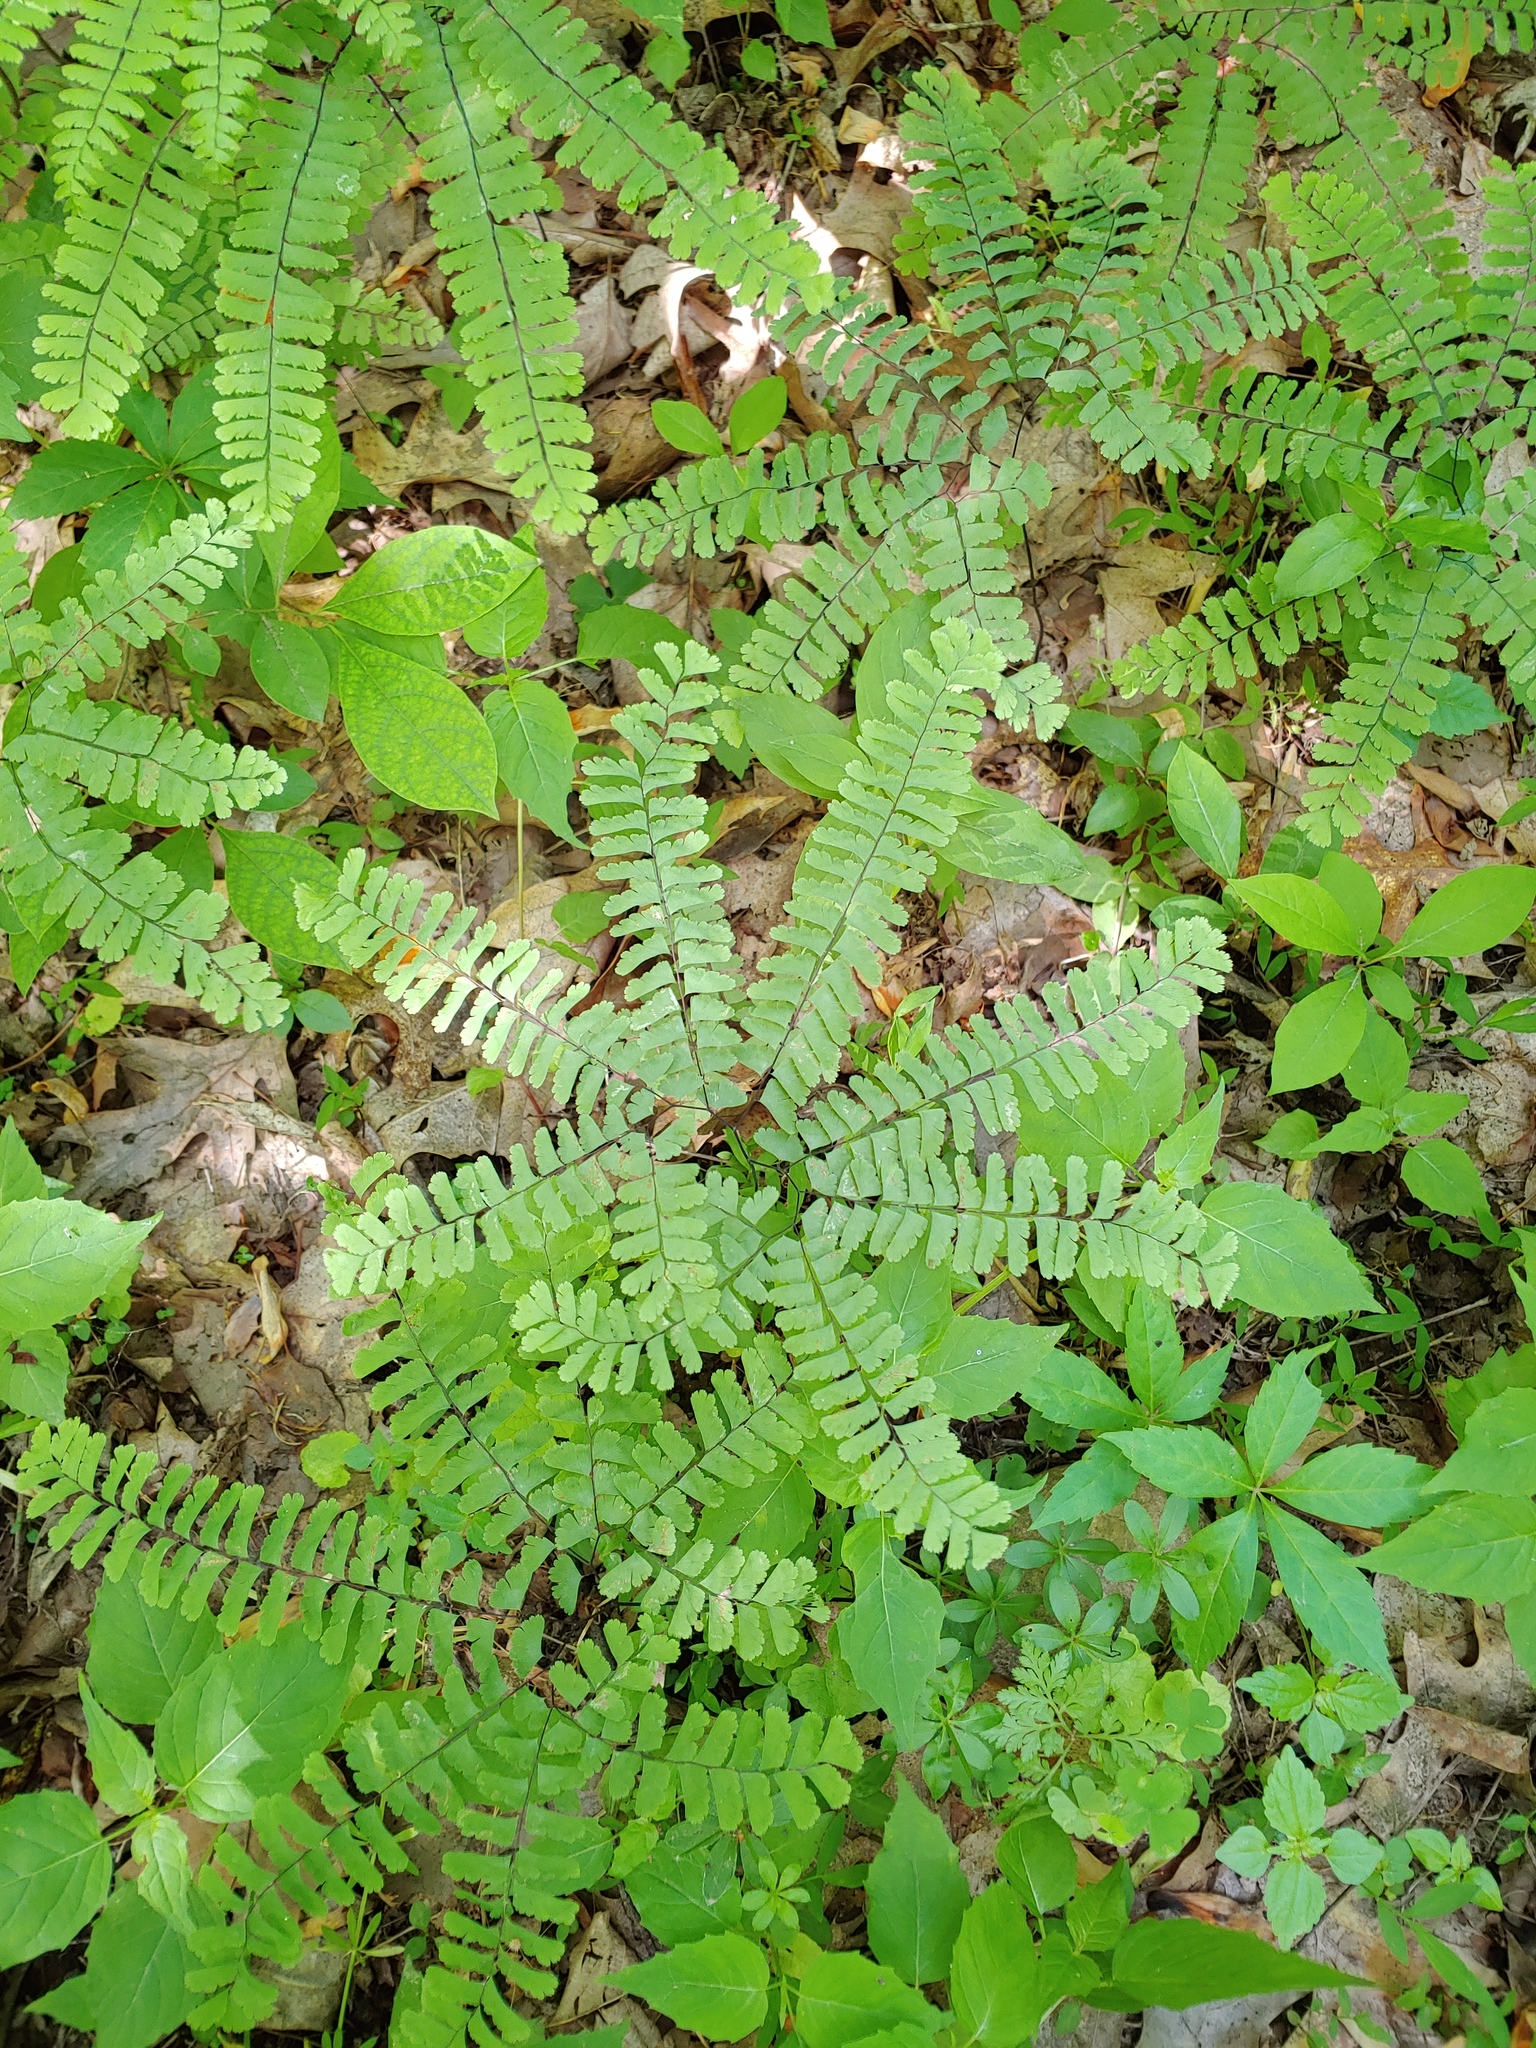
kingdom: Plantae
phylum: Tracheophyta
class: Polypodiopsida
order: Polypodiales
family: Pteridaceae
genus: Adiantum
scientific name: Adiantum pedatum
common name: Five-finger fern
